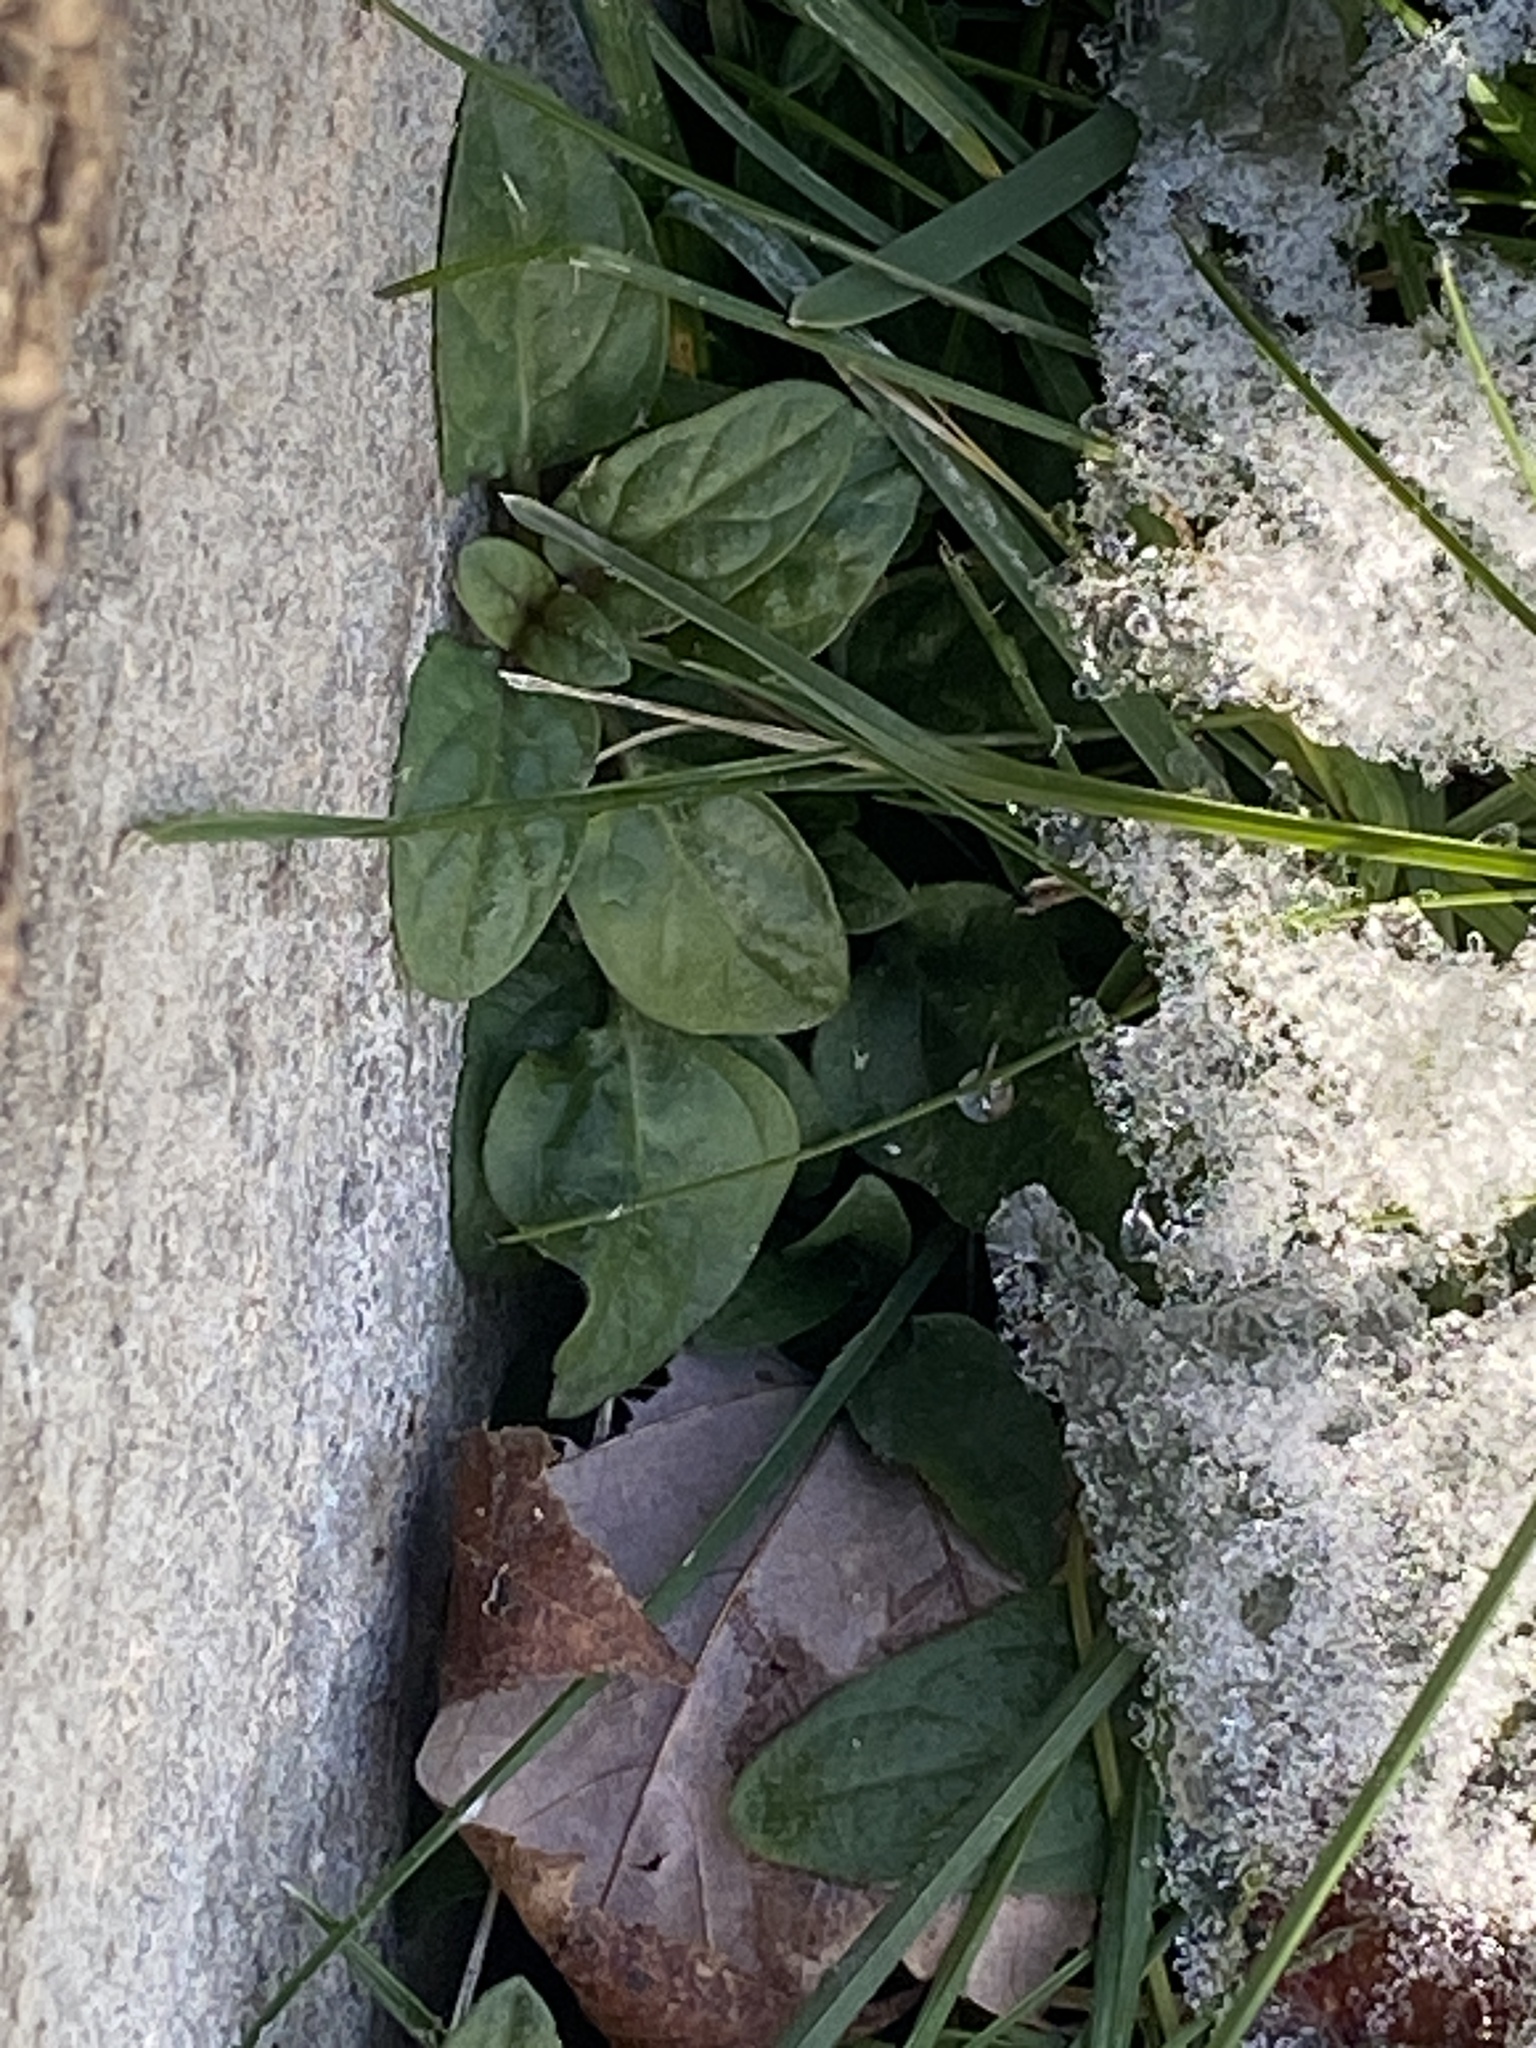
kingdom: Plantae
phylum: Tracheophyta
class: Magnoliopsida
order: Lamiales
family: Lamiaceae
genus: Prunella
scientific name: Prunella vulgaris
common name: Heal-all
